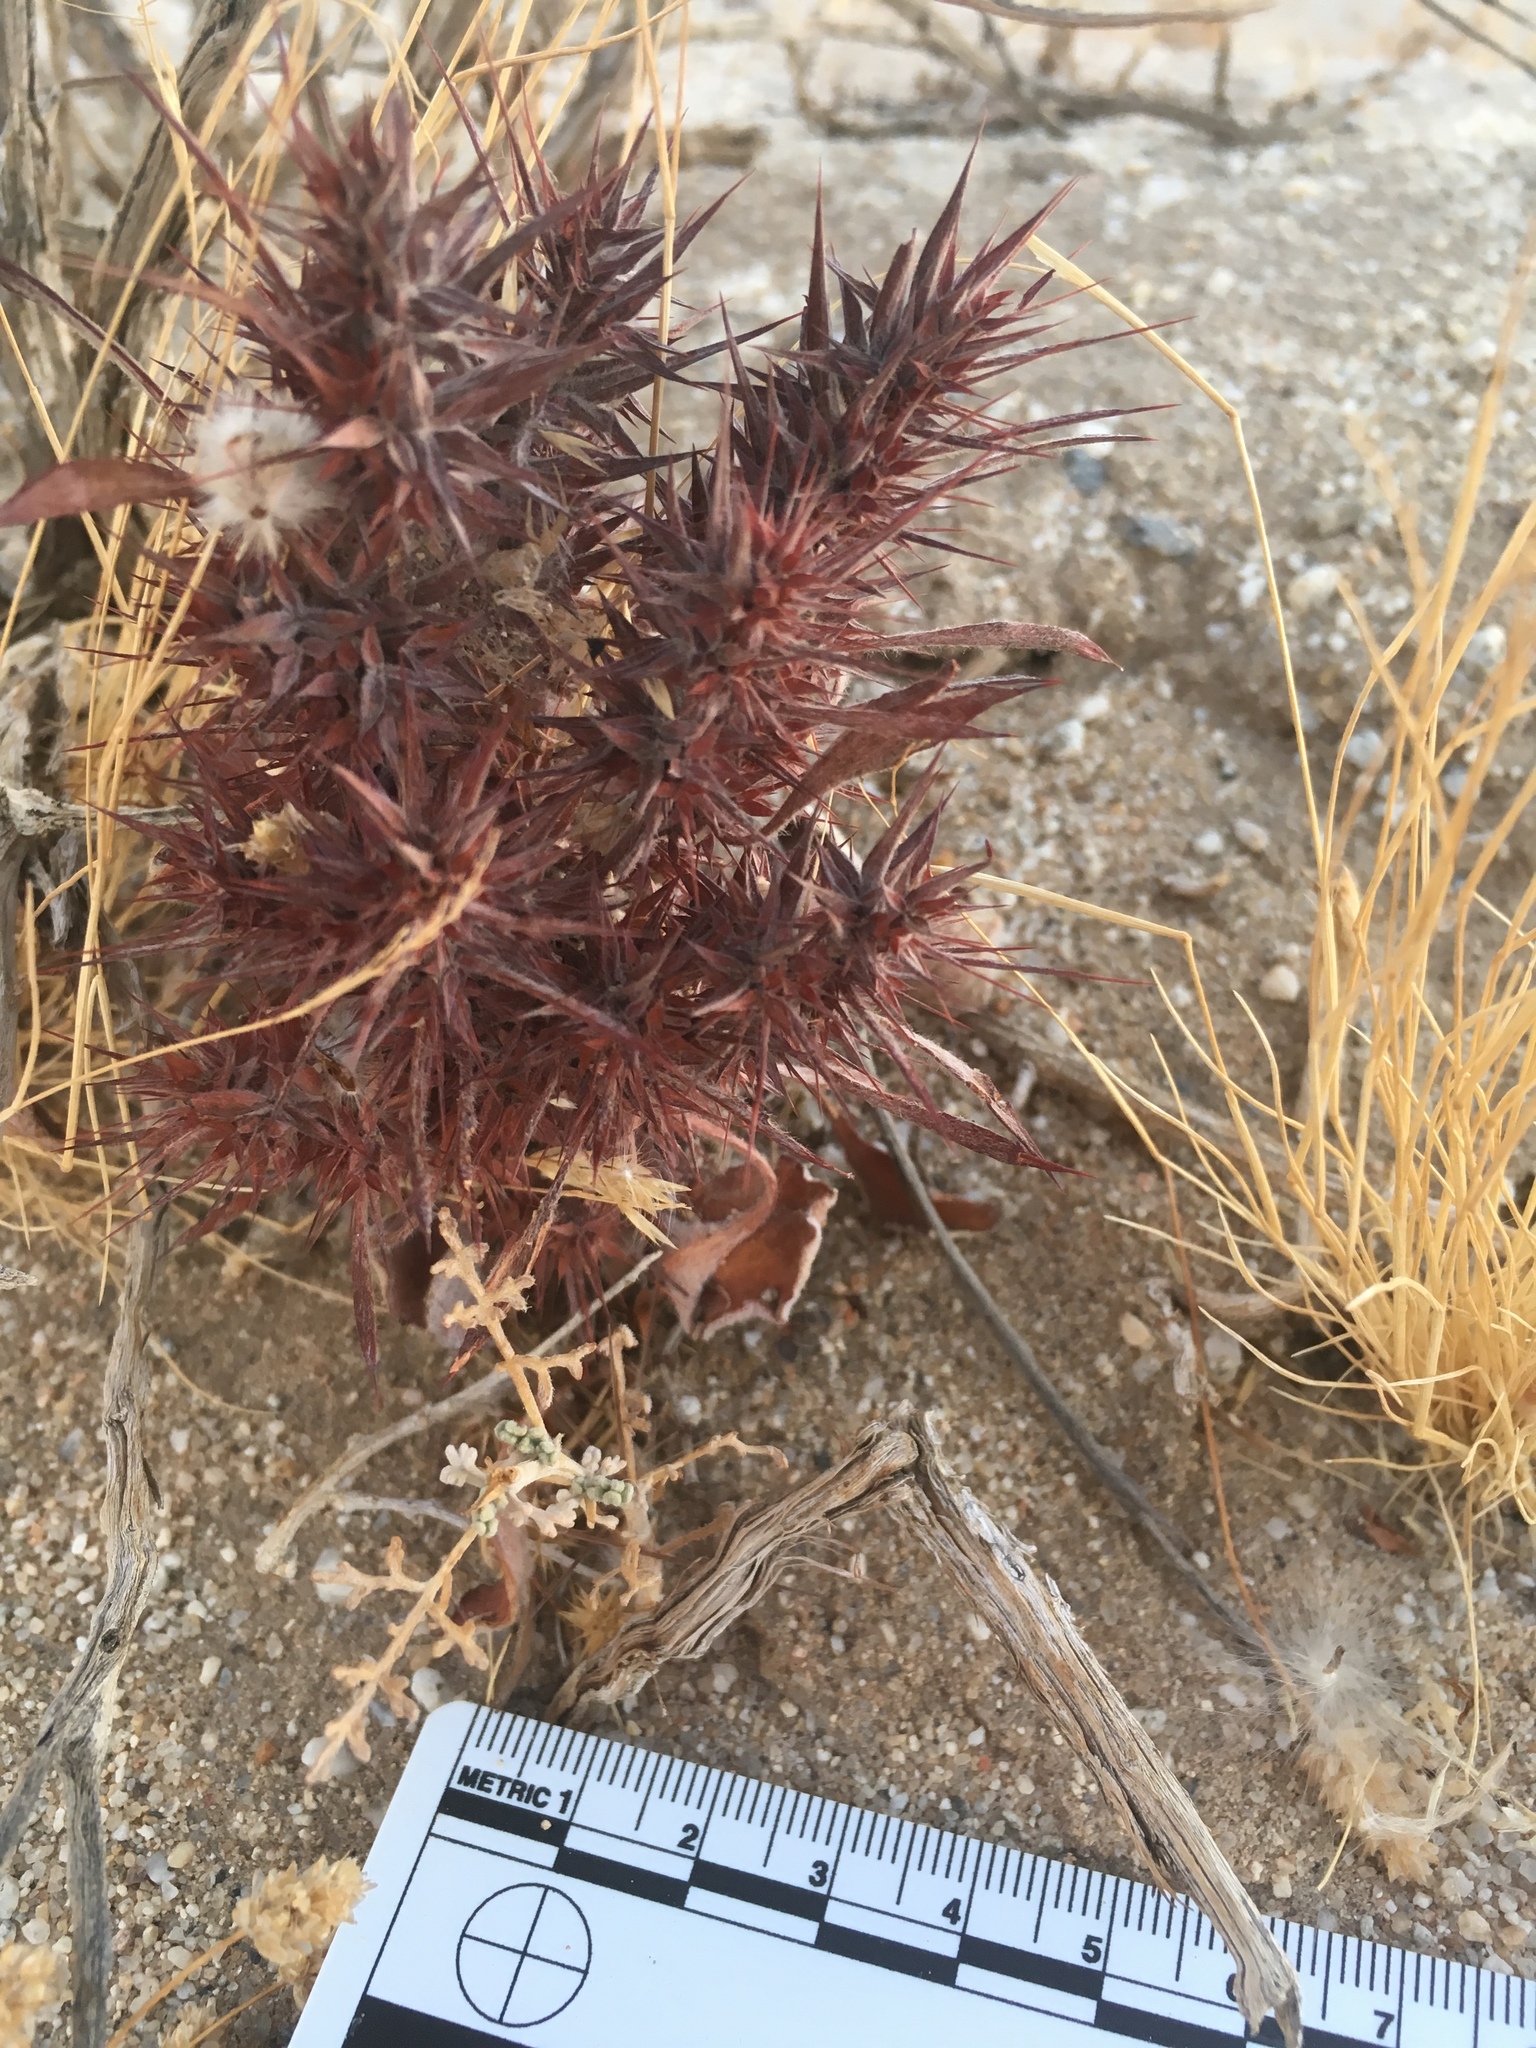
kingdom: Plantae
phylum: Tracheophyta
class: Magnoliopsida
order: Caryophyllales
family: Polygonaceae
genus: Chorizanthe
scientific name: Chorizanthe rigida
